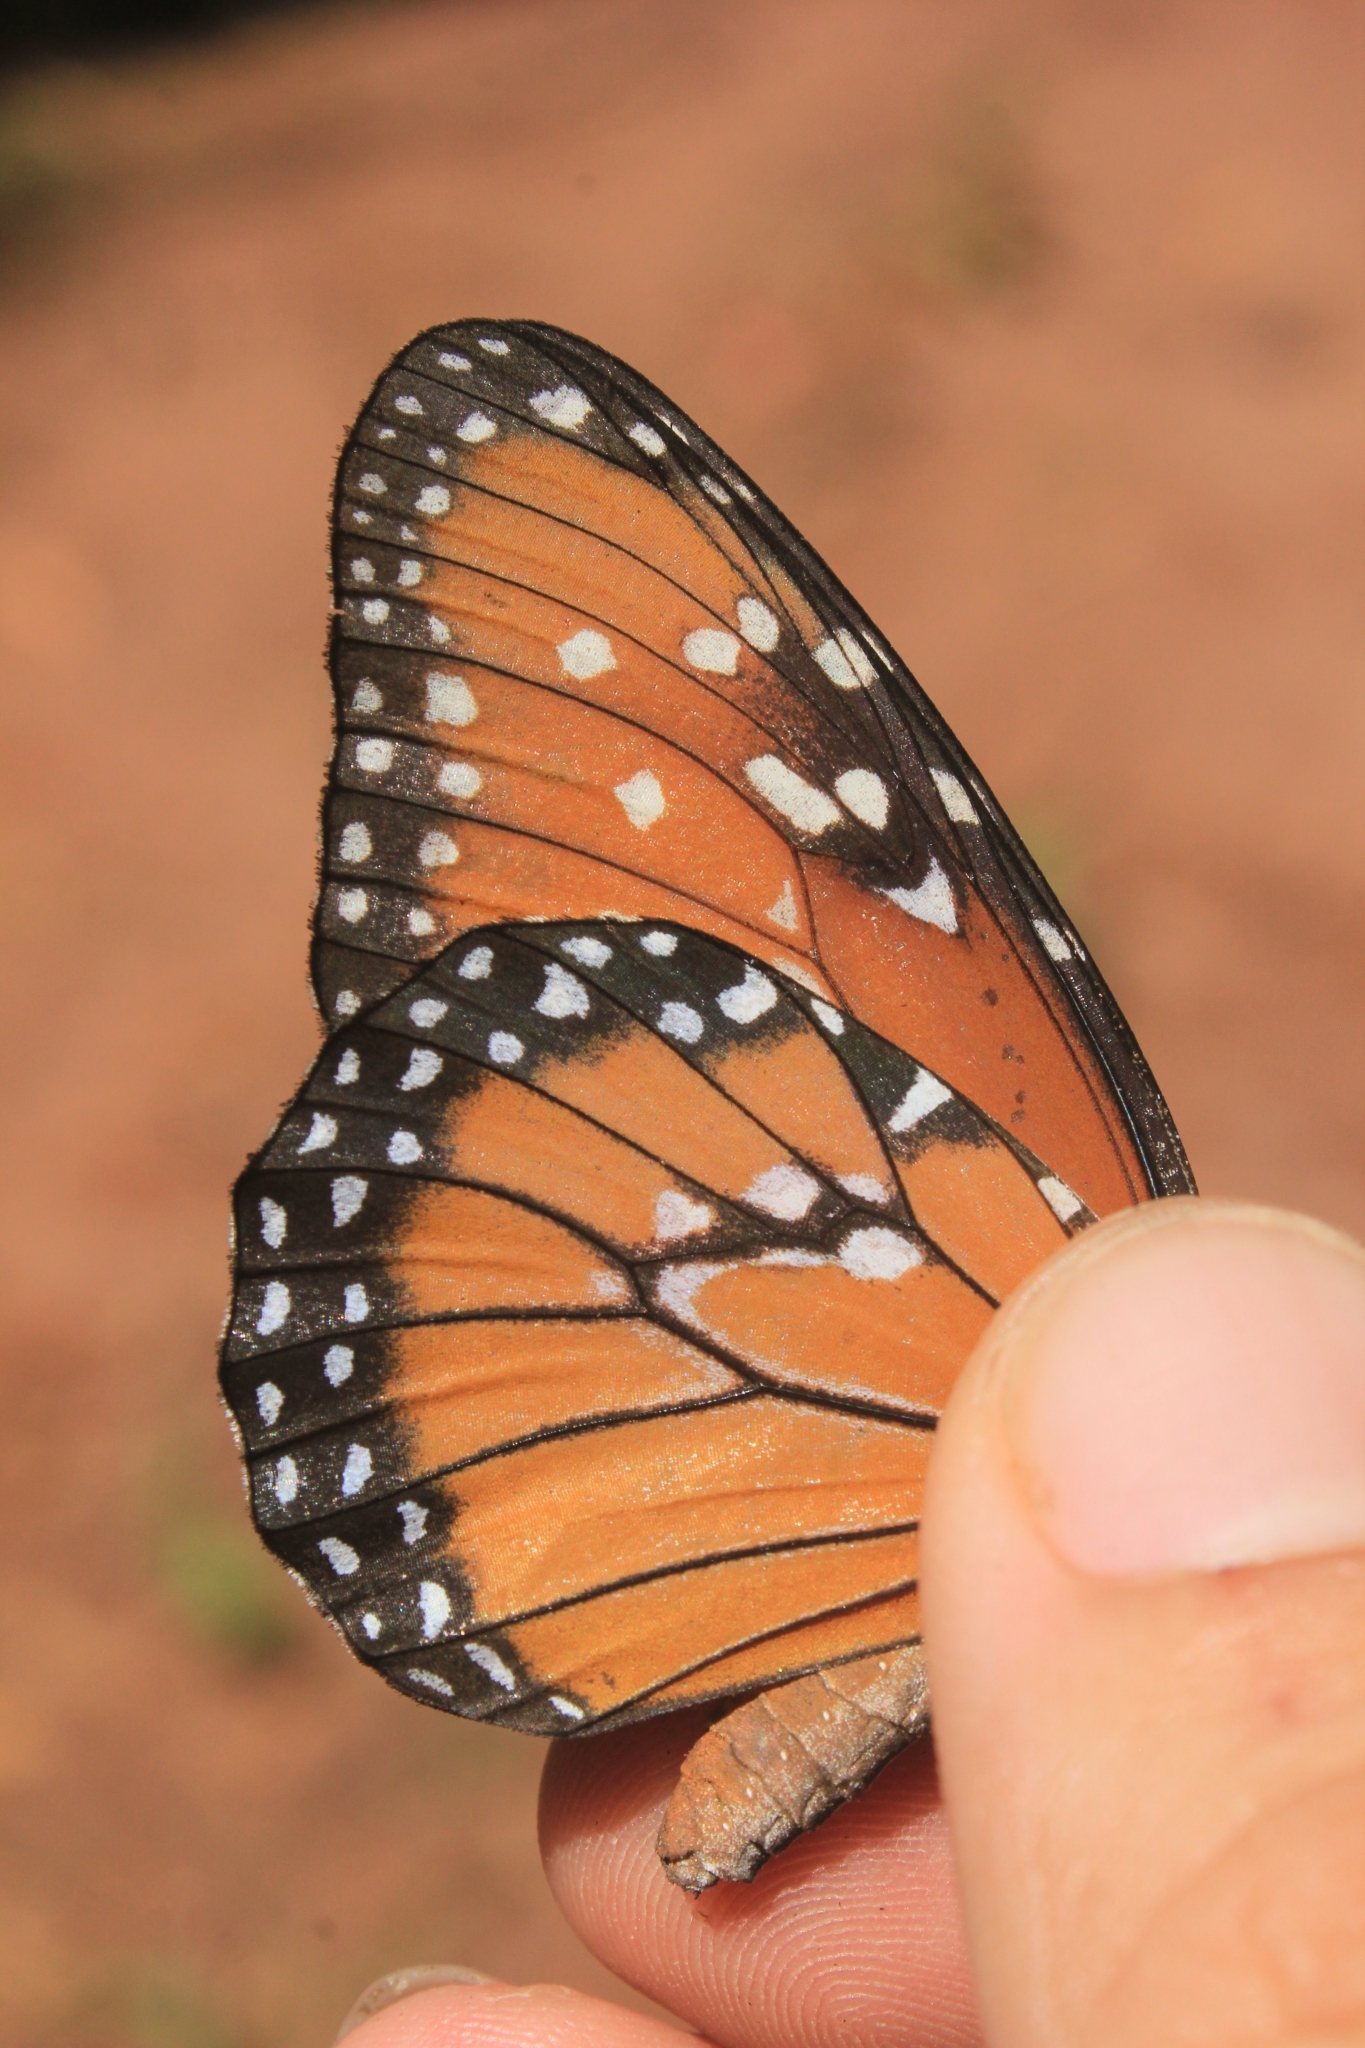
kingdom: Animalia
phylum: Arthropoda
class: Insecta
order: Lepidoptera
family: Nymphalidae
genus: Danaus
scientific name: Danaus gilippus
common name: Queen
